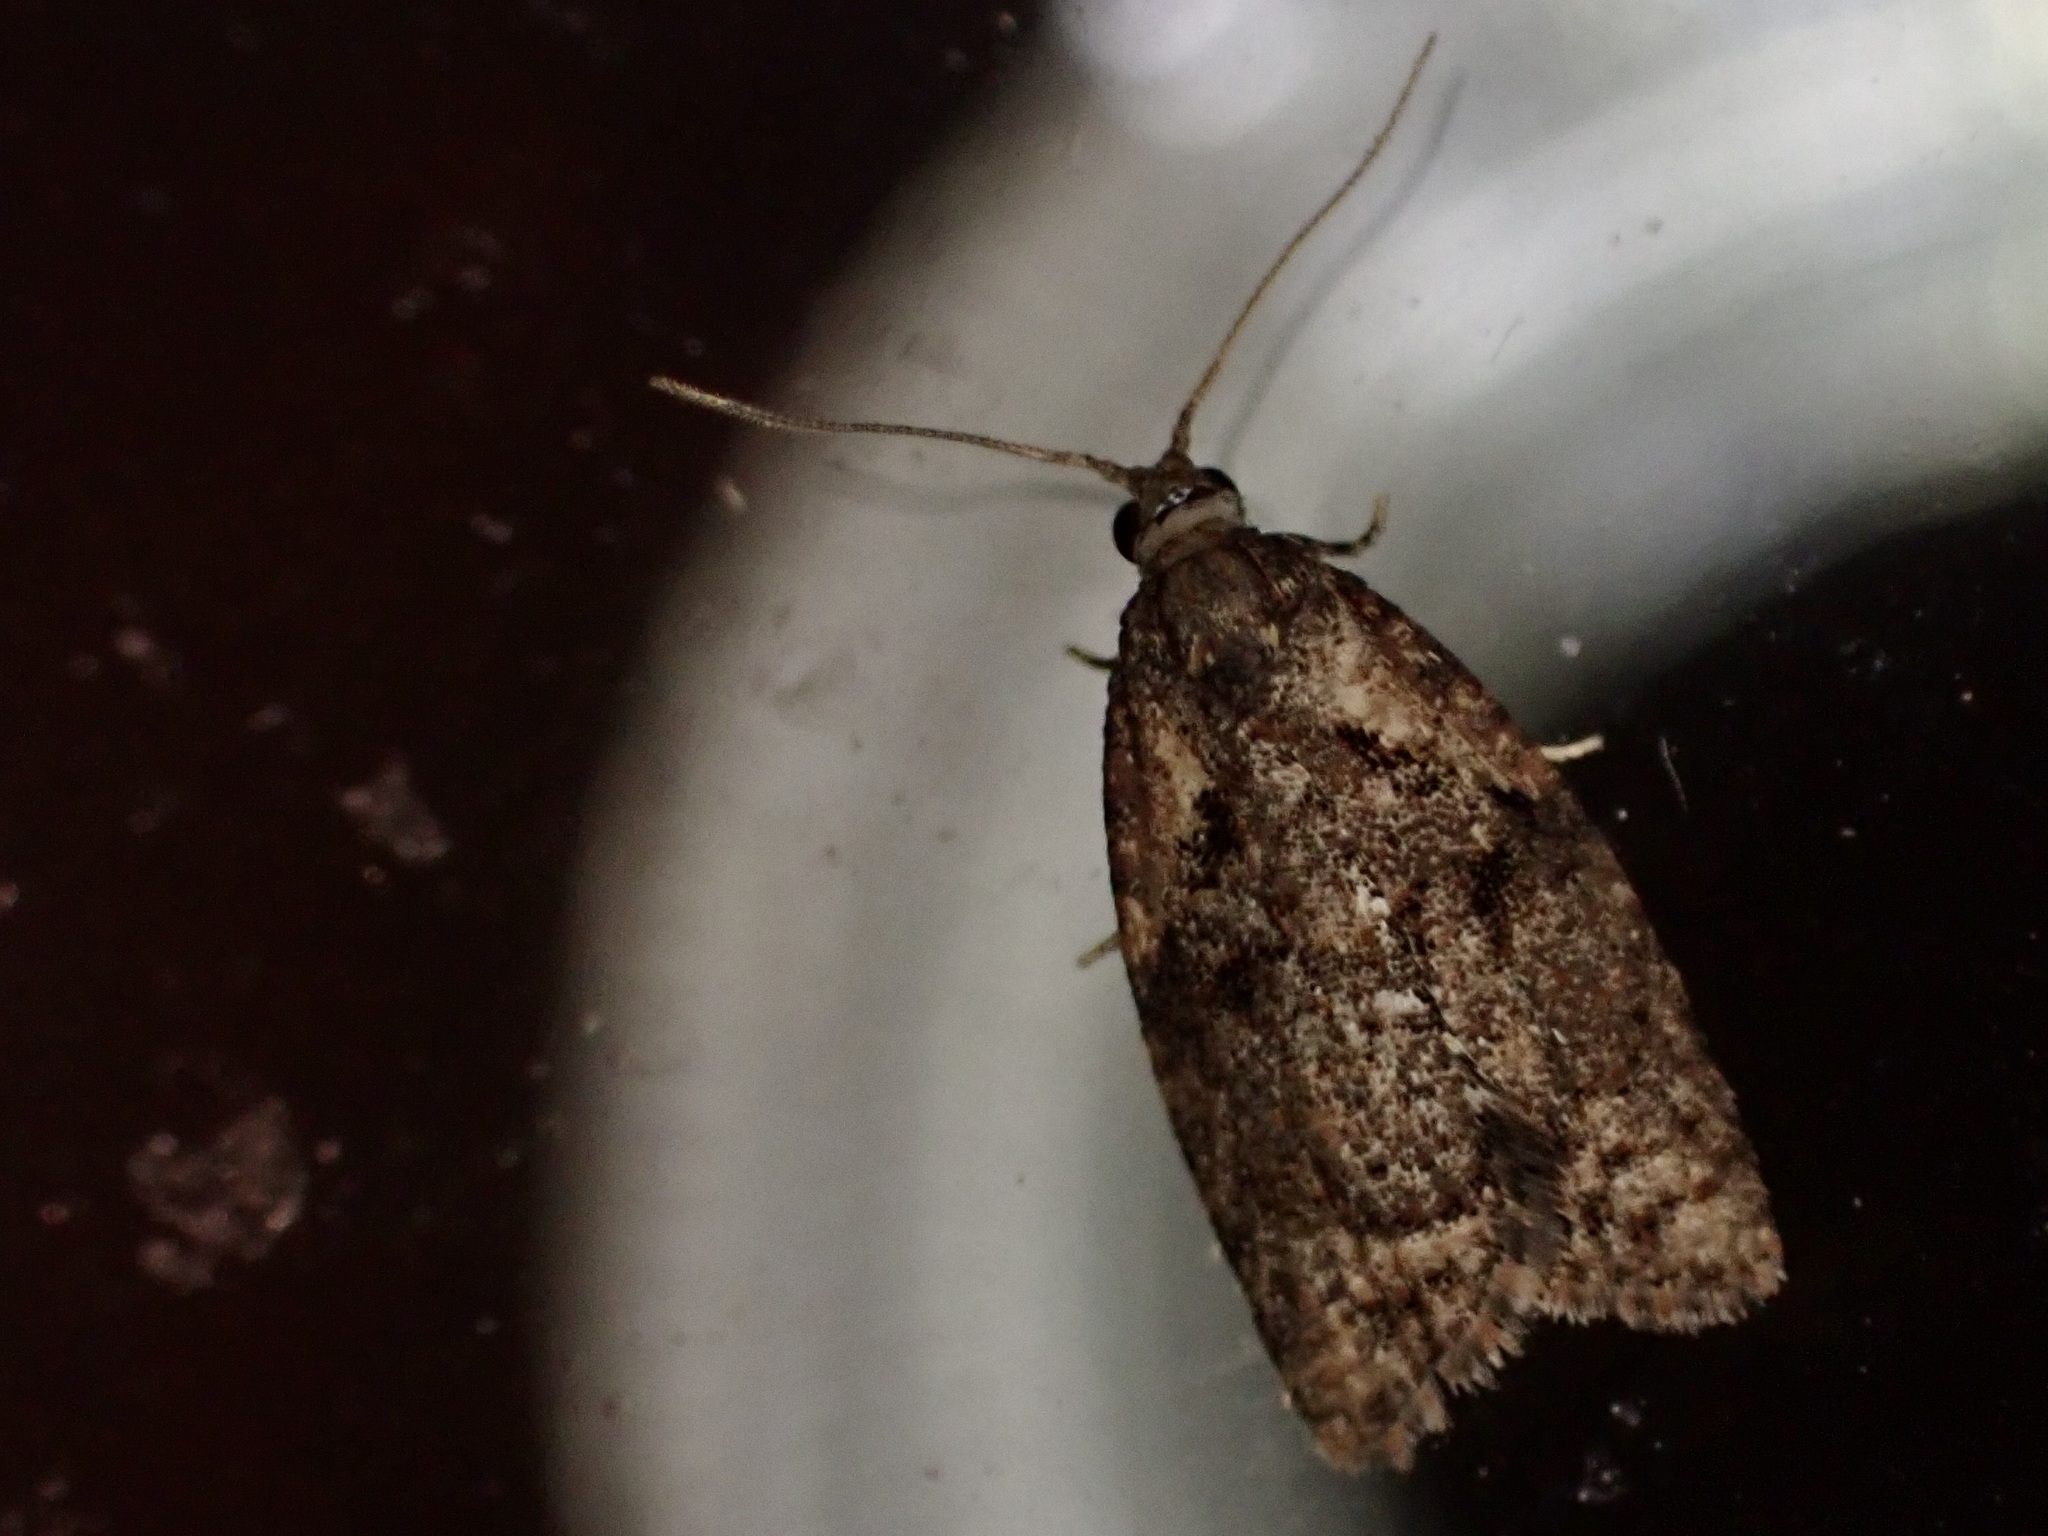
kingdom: Animalia
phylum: Arthropoda
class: Insecta
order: Lepidoptera
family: Tortricidae
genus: Capua
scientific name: Capua intractana
